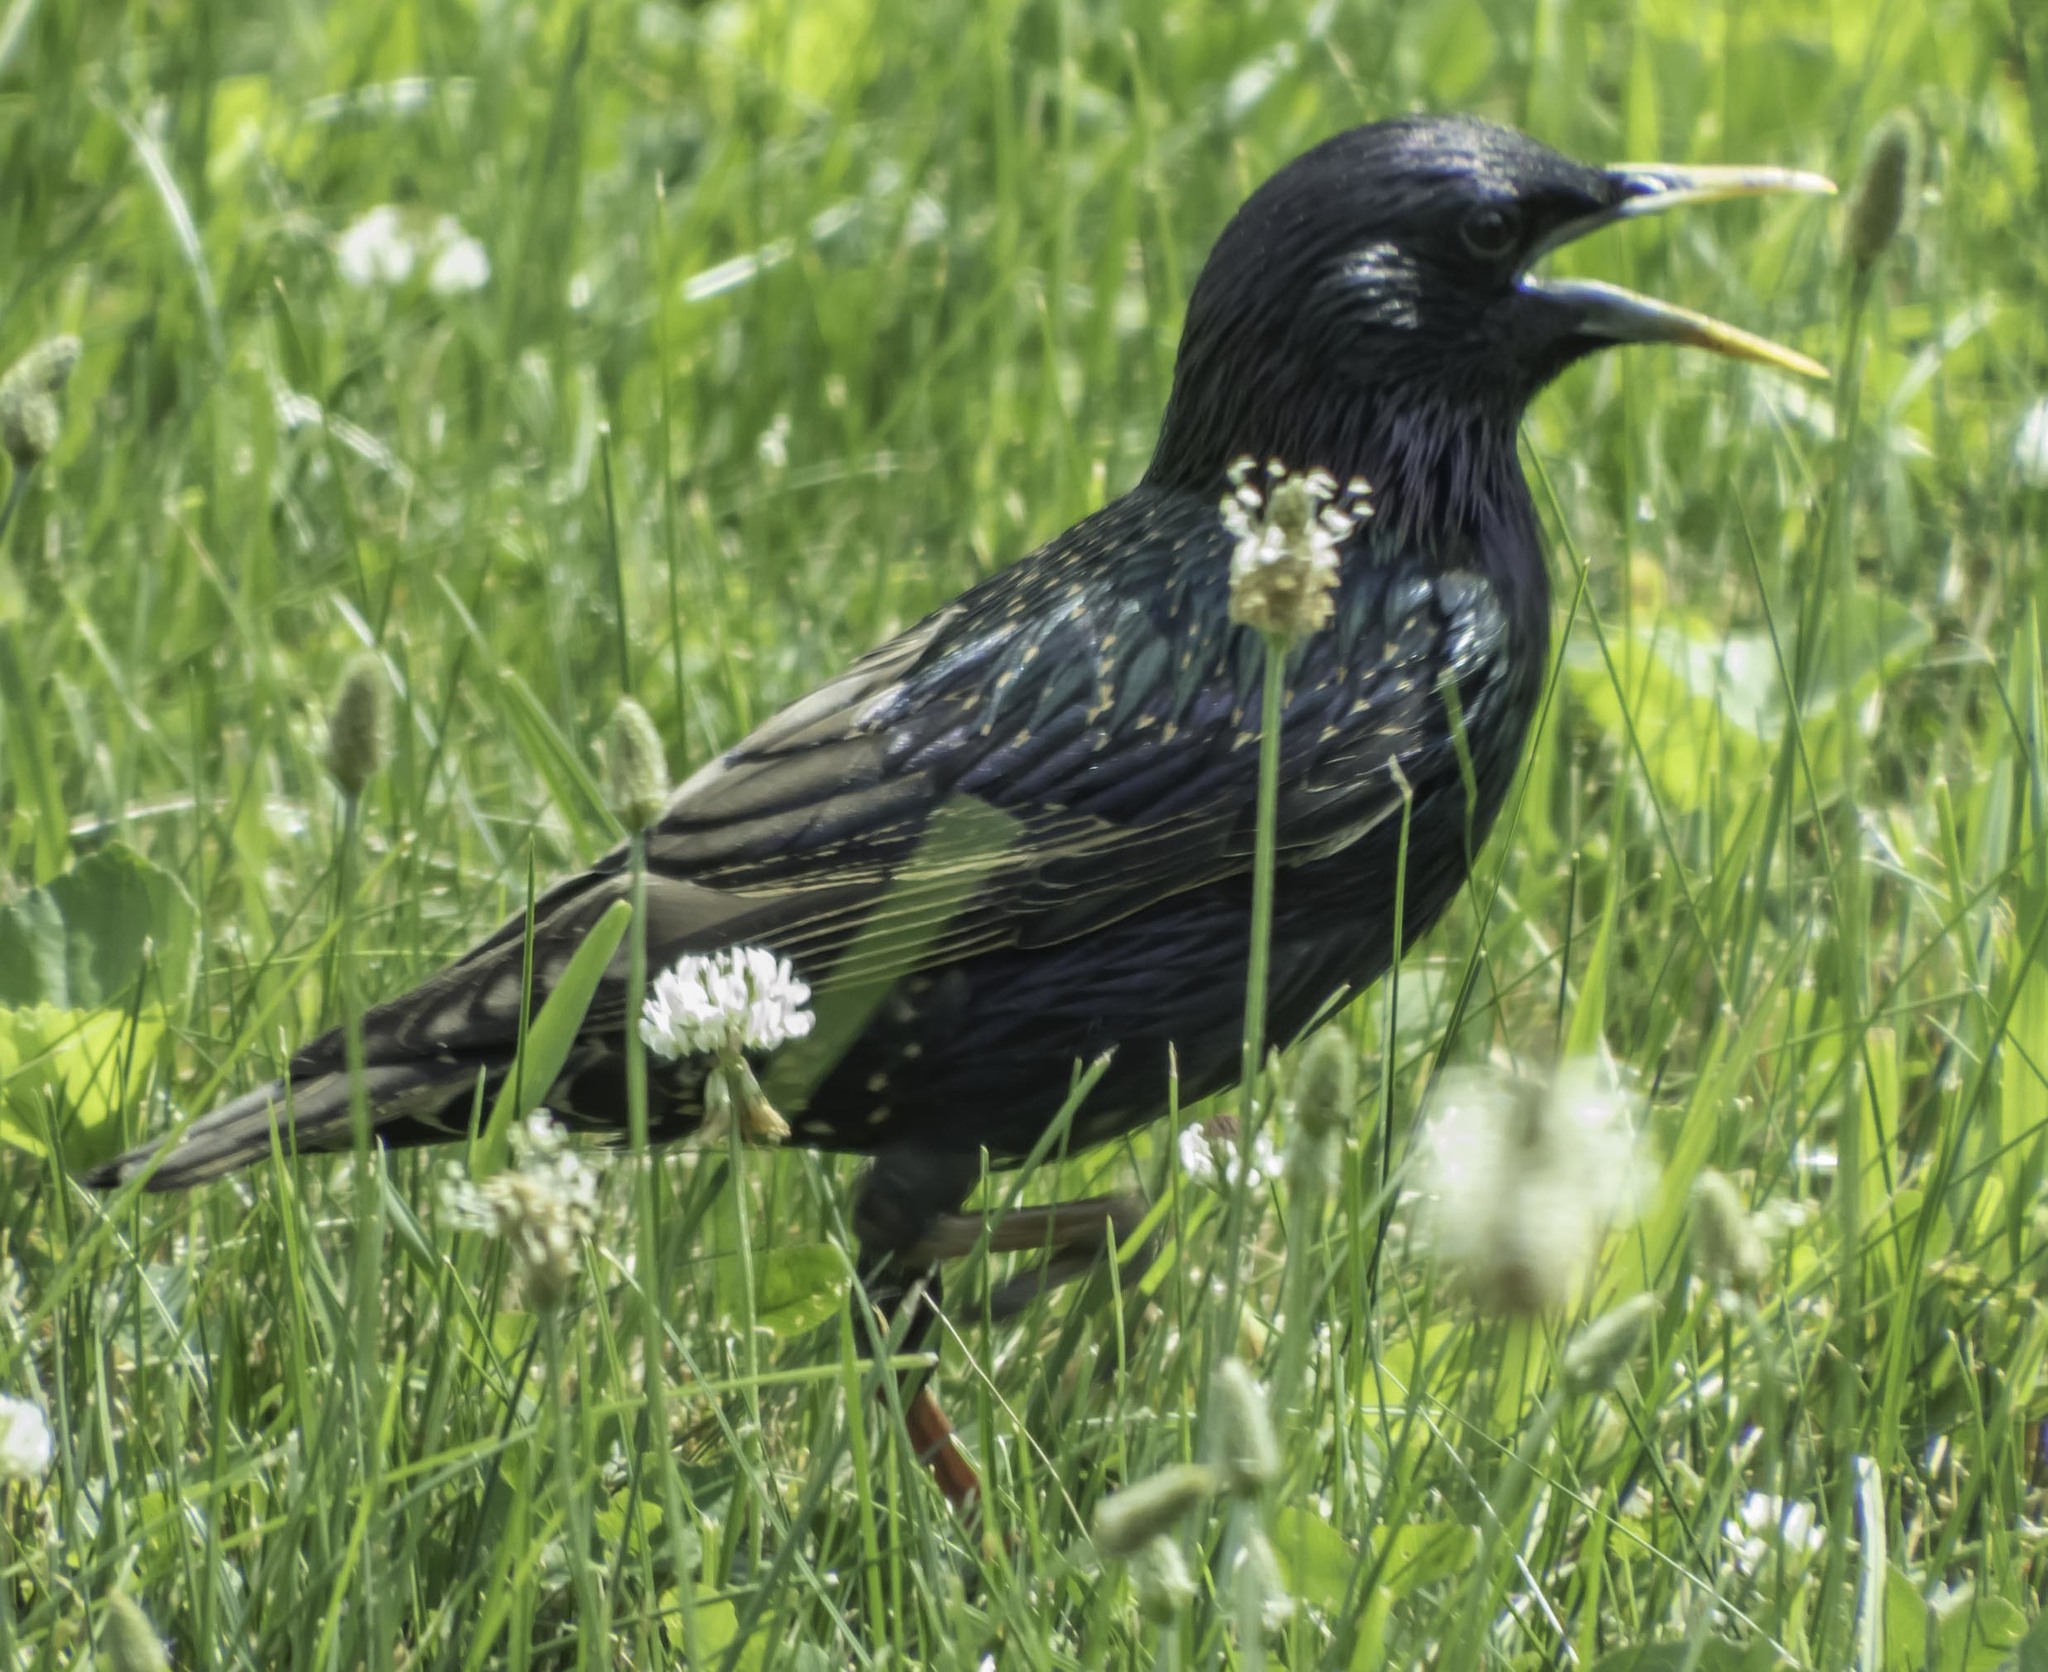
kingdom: Animalia
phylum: Chordata
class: Aves
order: Passeriformes
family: Sturnidae
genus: Sturnus
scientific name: Sturnus vulgaris
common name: Common starling
